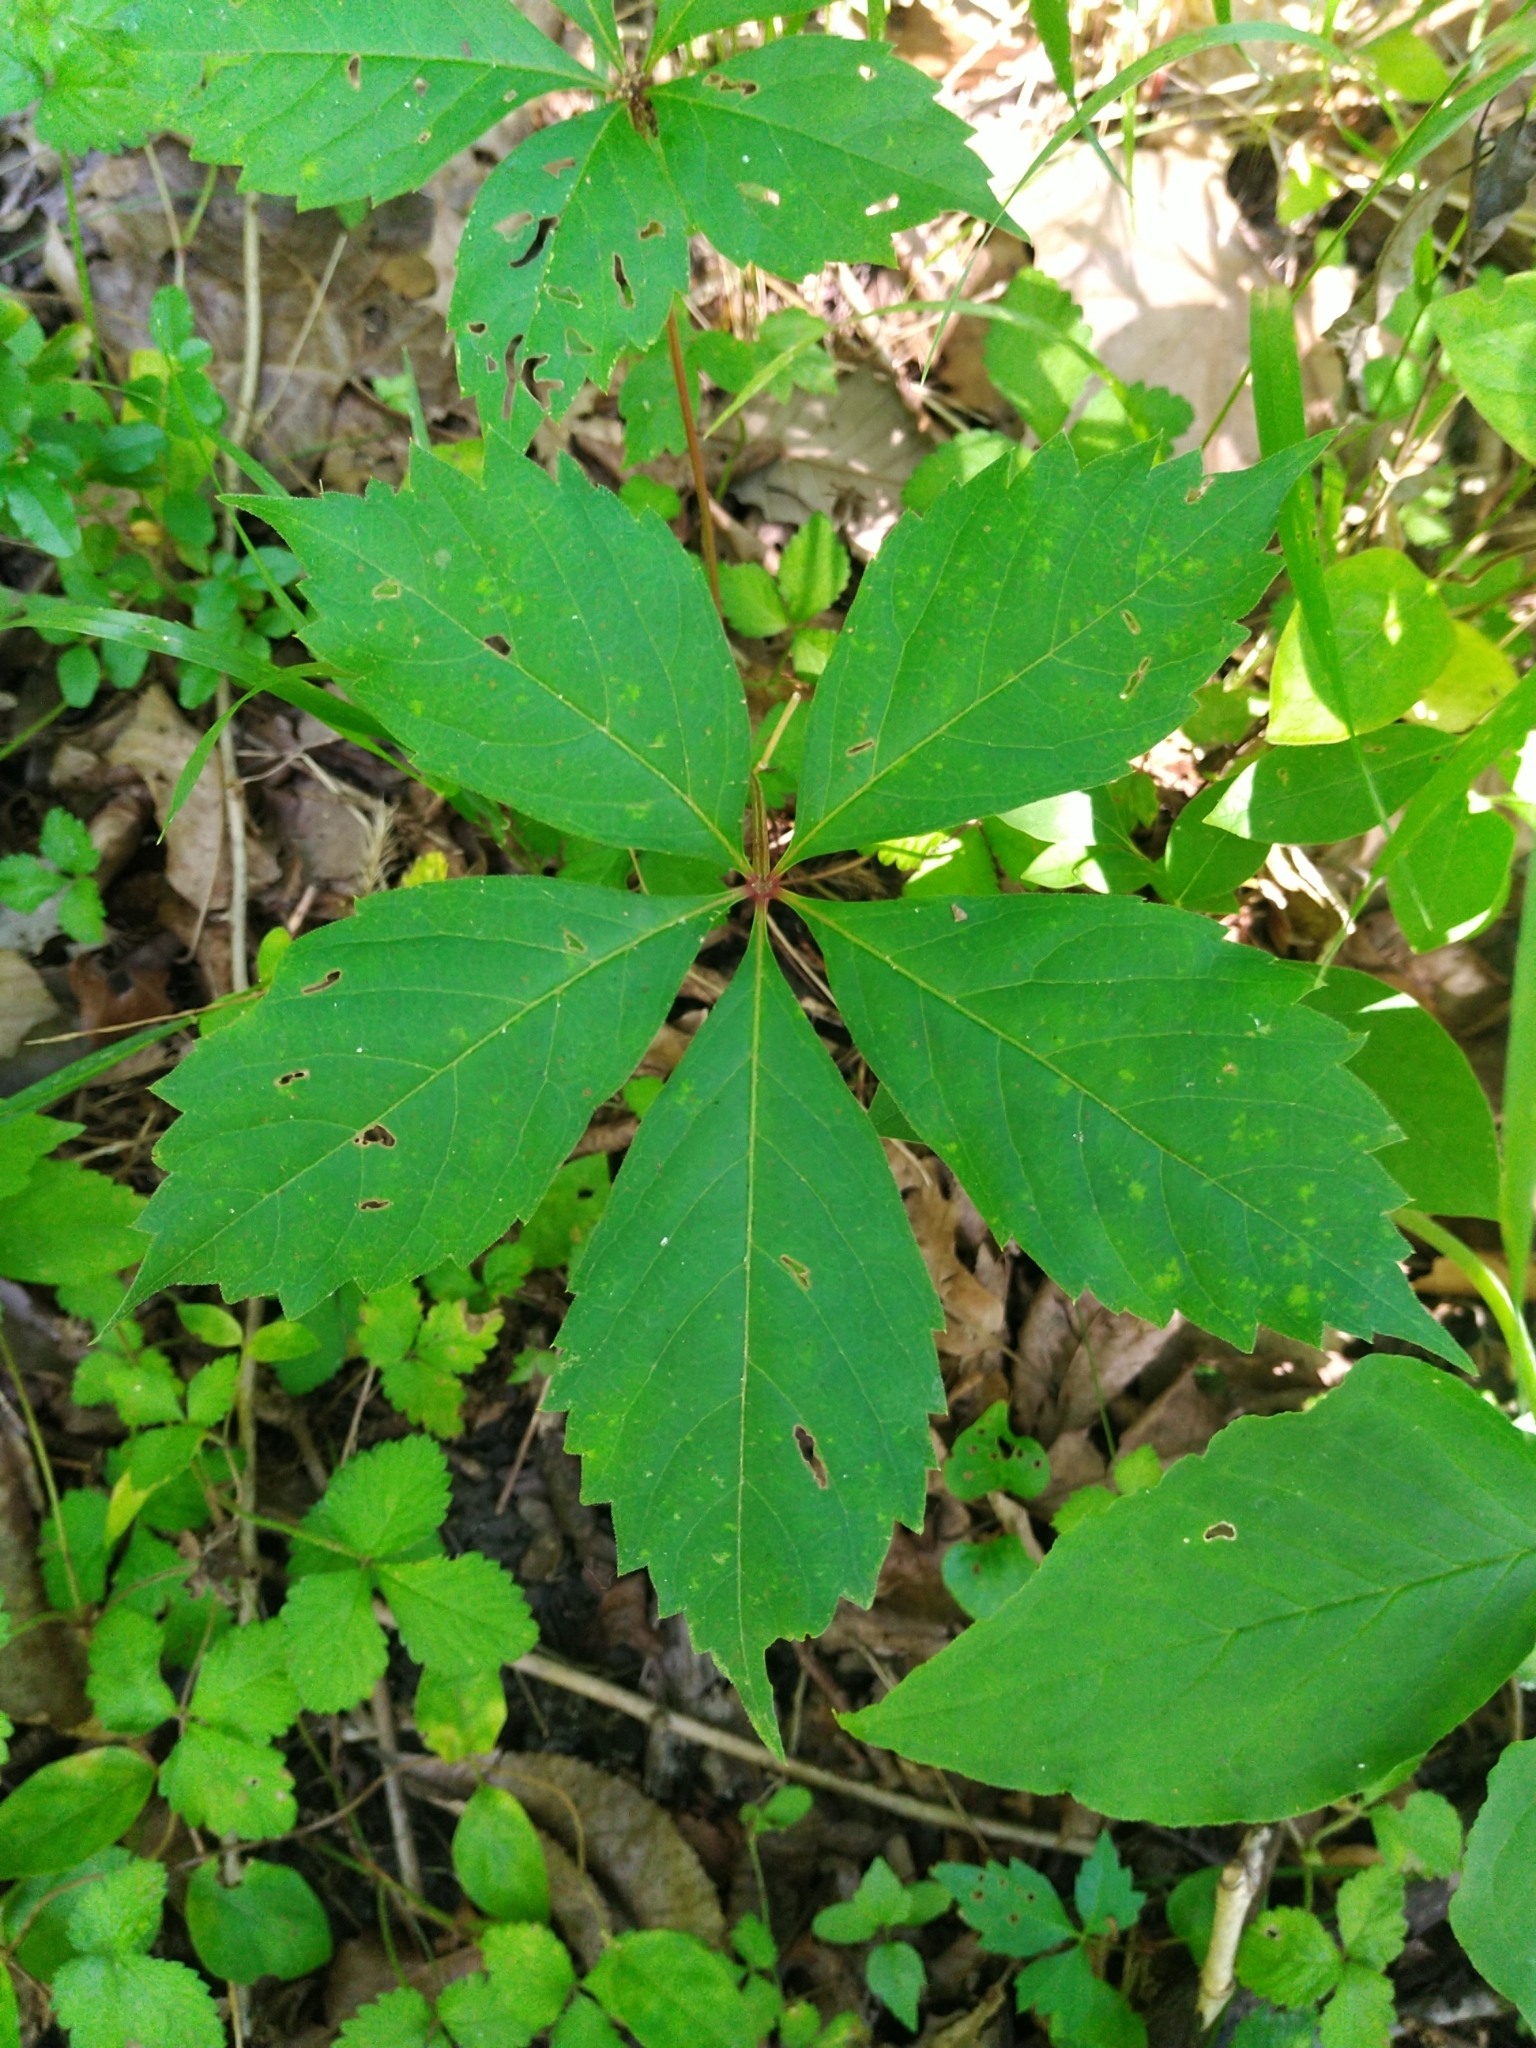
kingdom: Plantae
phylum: Tracheophyta
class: Magnoliopsida
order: Vitales
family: Vitaceae
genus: Parthenocissus
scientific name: Parthenocissus quinquefolia
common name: Virginia-creeper
